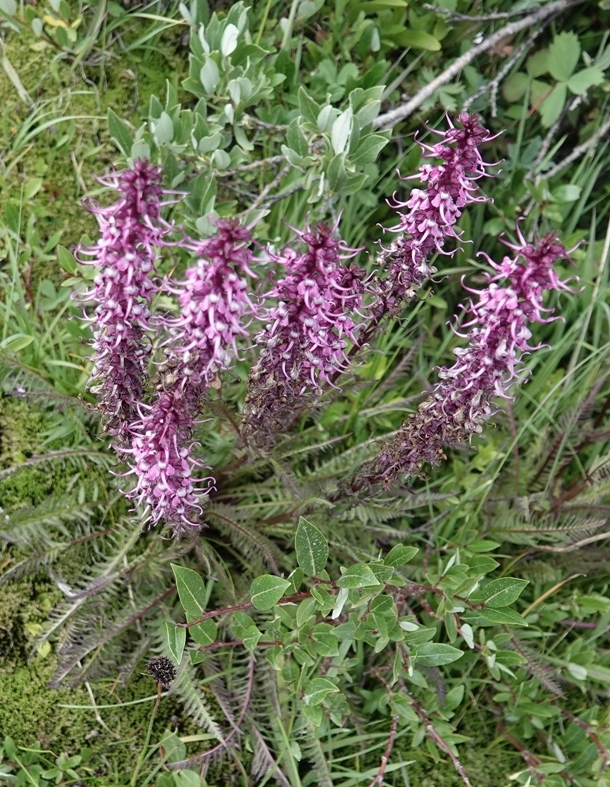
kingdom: Plantae
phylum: Tracheophyta
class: Magnoliopsida
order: Lamiales
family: Orobanchaceae
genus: Pedicularis
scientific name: Pedicularis groenlandica
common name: Elephant's-head
